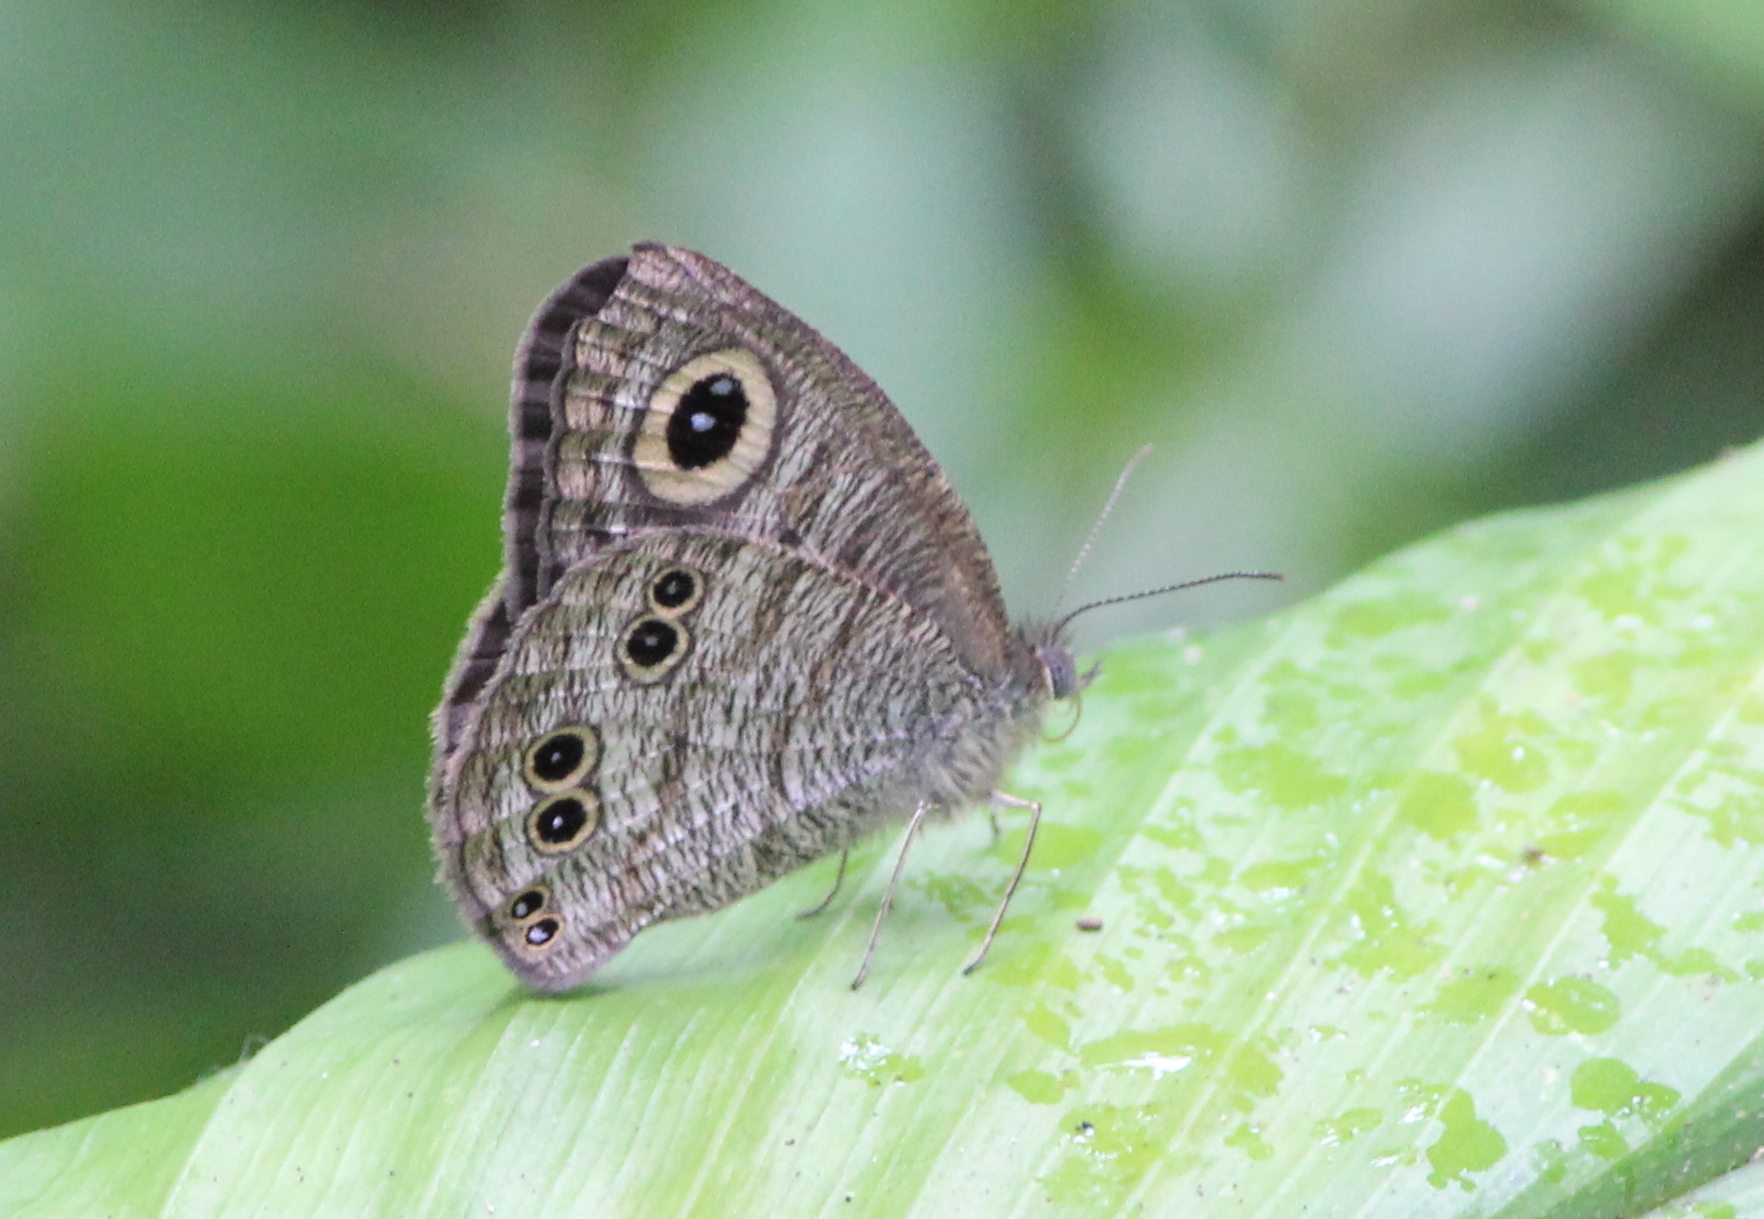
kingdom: Animalia
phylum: Arthropoda
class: Insecta
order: Lepidoptera
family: Nymphalidae
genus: Ypthima
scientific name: Ypthima baldus
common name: Common five-ring
